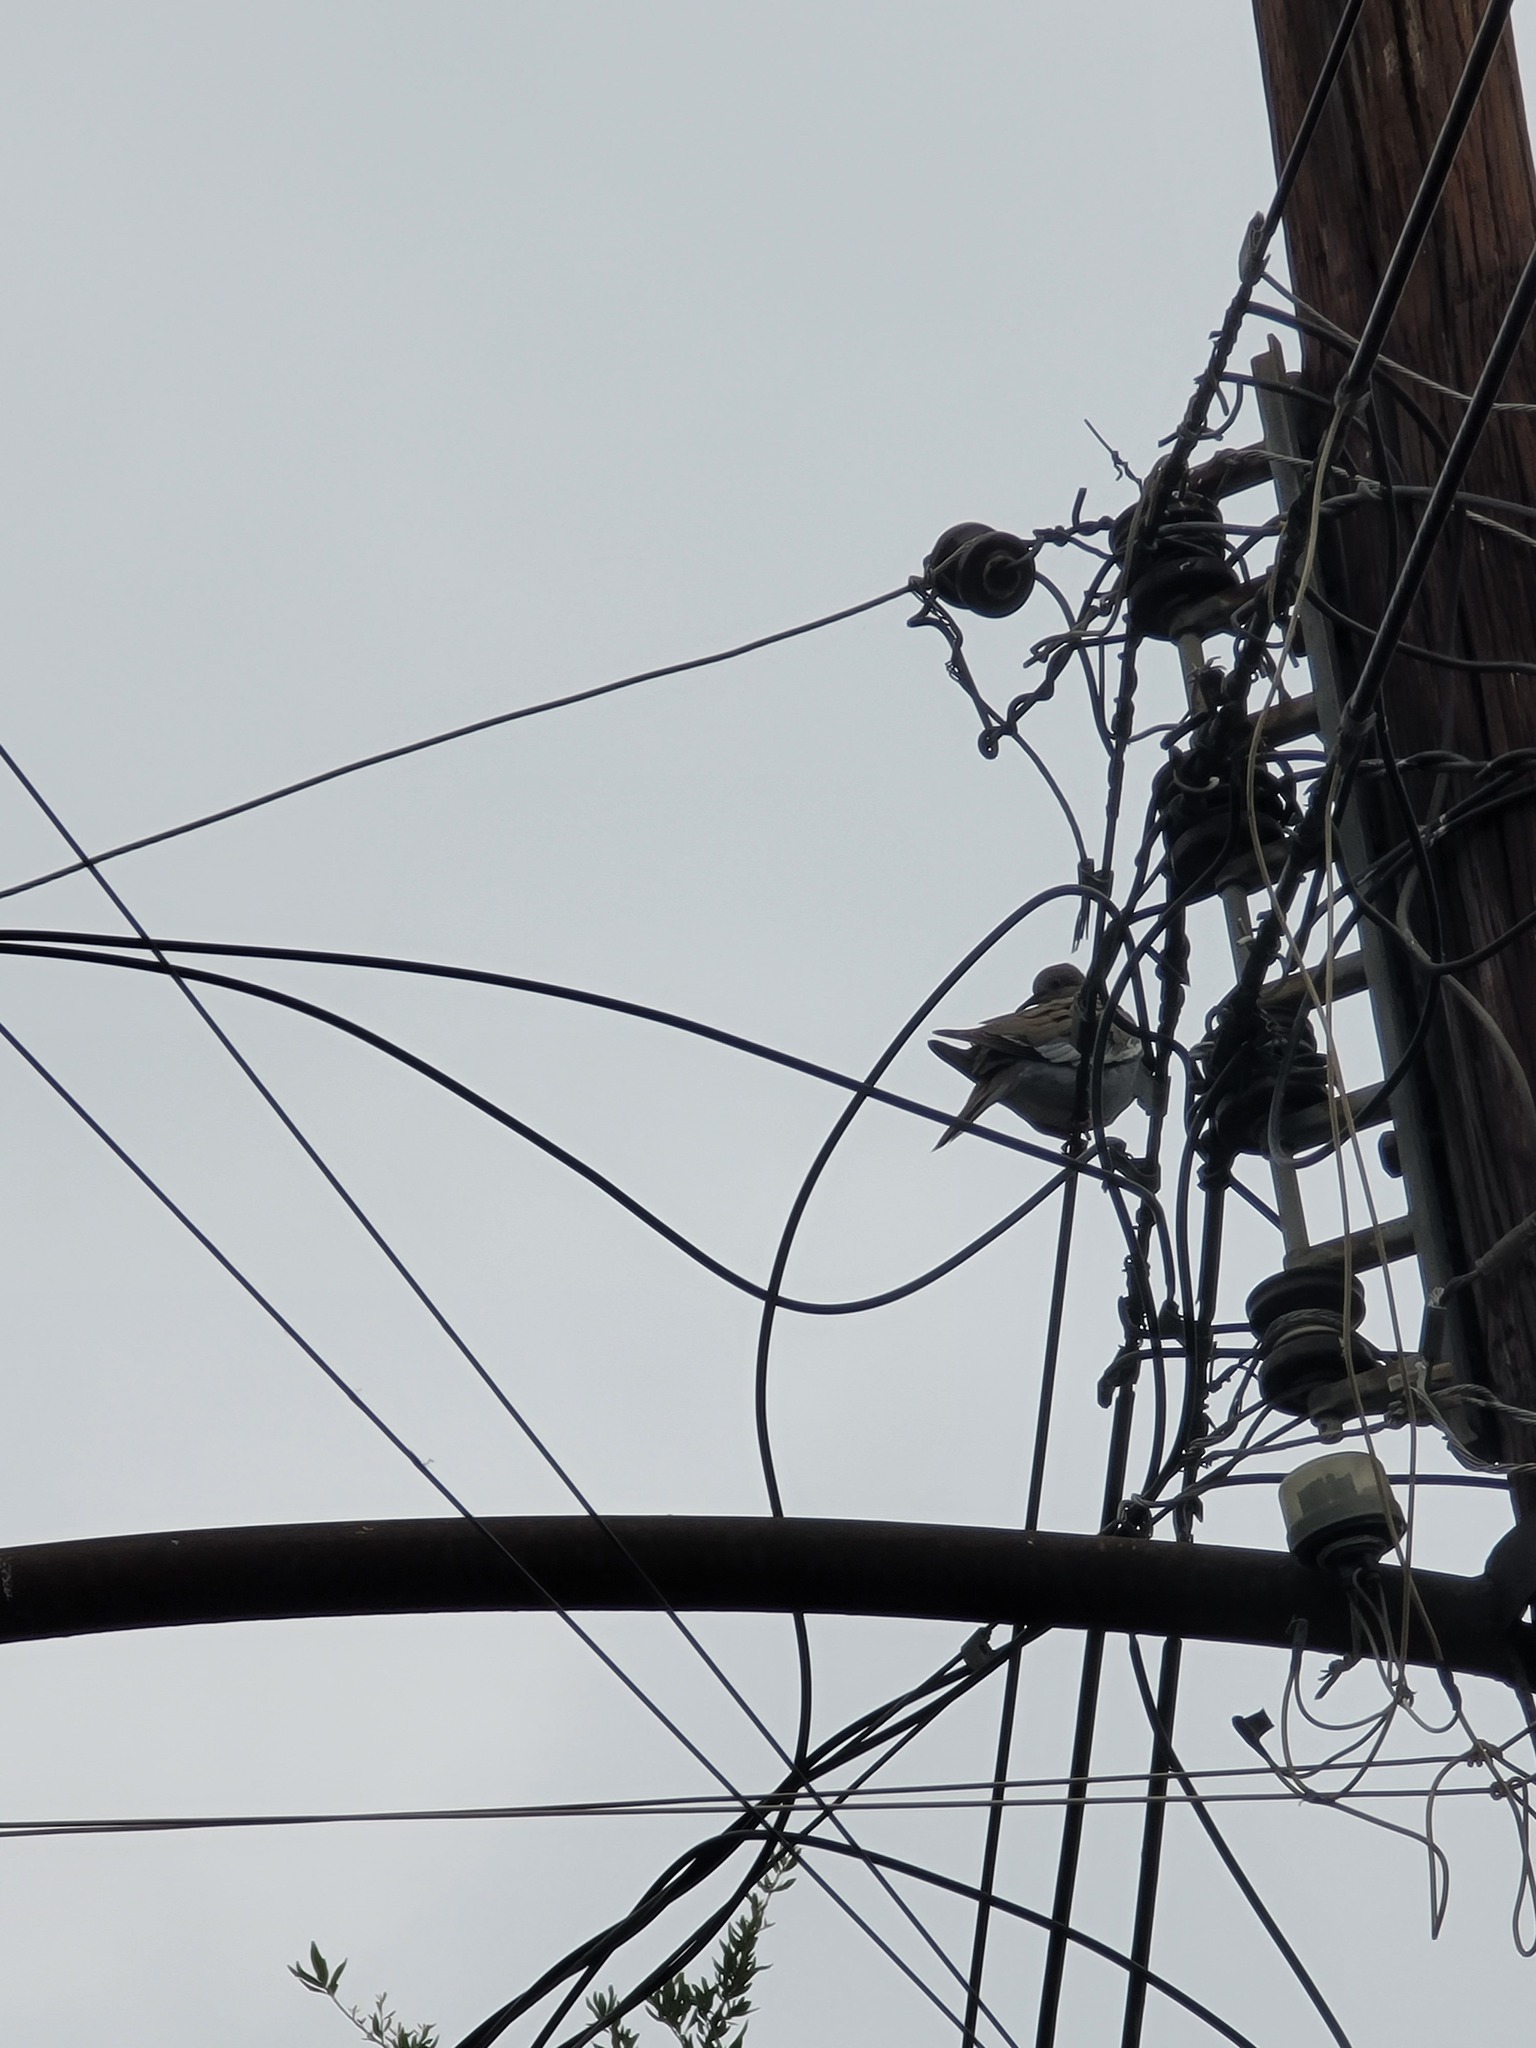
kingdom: Animalia
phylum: Chordata
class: Aves
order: Columbiformes
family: Columbidae
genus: Zenaida
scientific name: Zenaida asiatica
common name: White-winged dove
